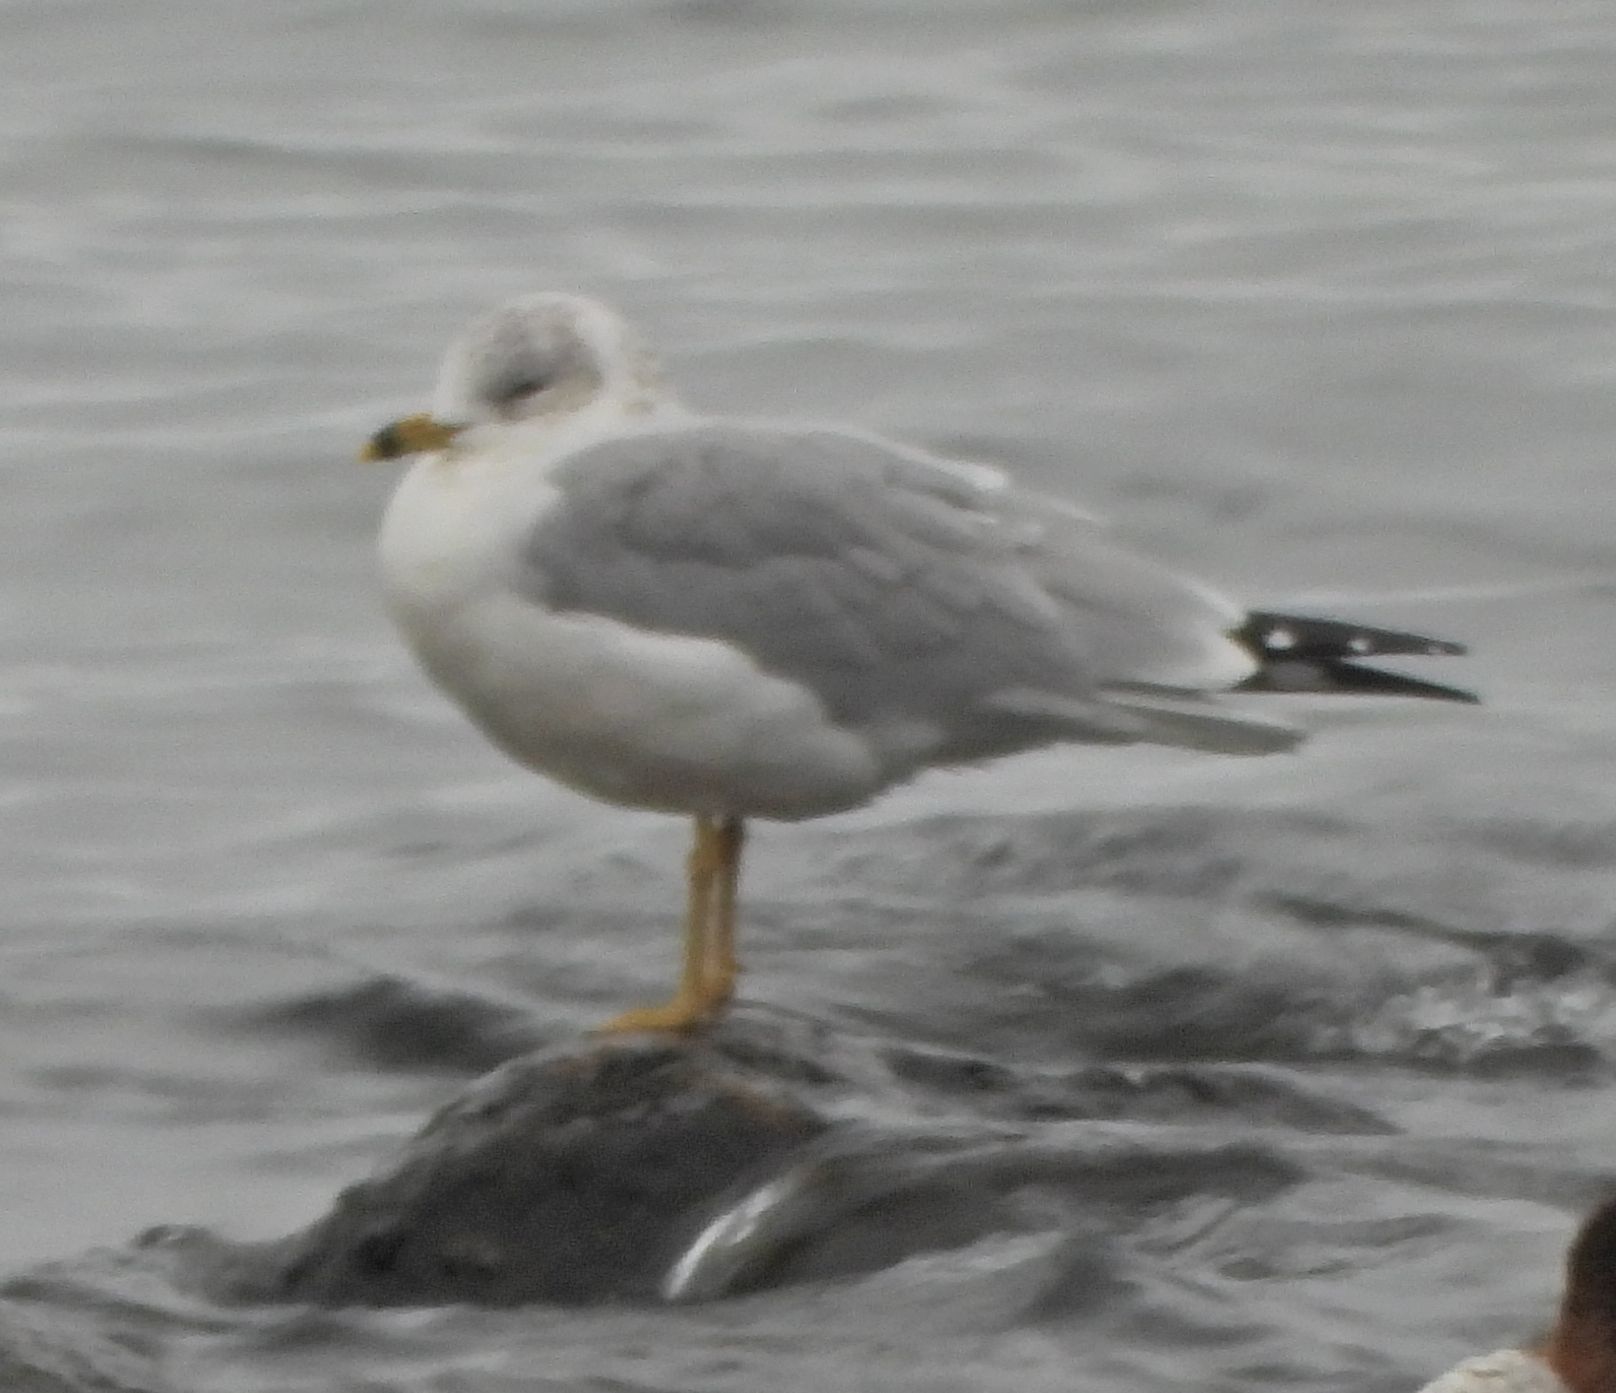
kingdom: Animalia
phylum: Chordata
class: Aves
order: Charadriiformes
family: Laridae
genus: Larus
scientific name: Larus delawarensis
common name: Ring-billed gull
